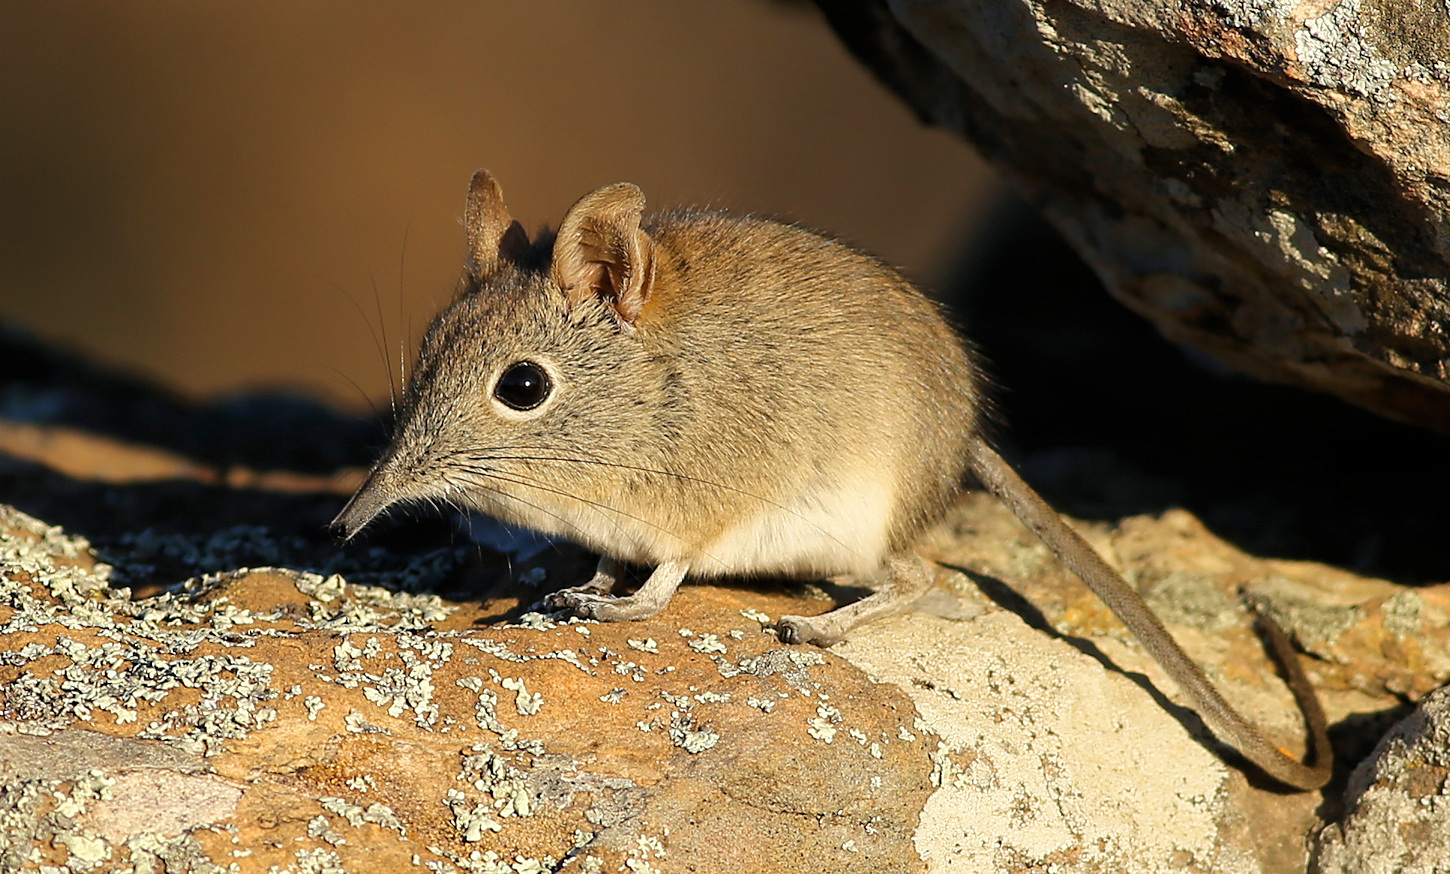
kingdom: Animalia
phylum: Chordata
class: Mammalia
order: Macroscelidea
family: Macroscelididae
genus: Elephantulus
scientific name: Elephantulus myurus
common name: Eastern rock elephant shrew
